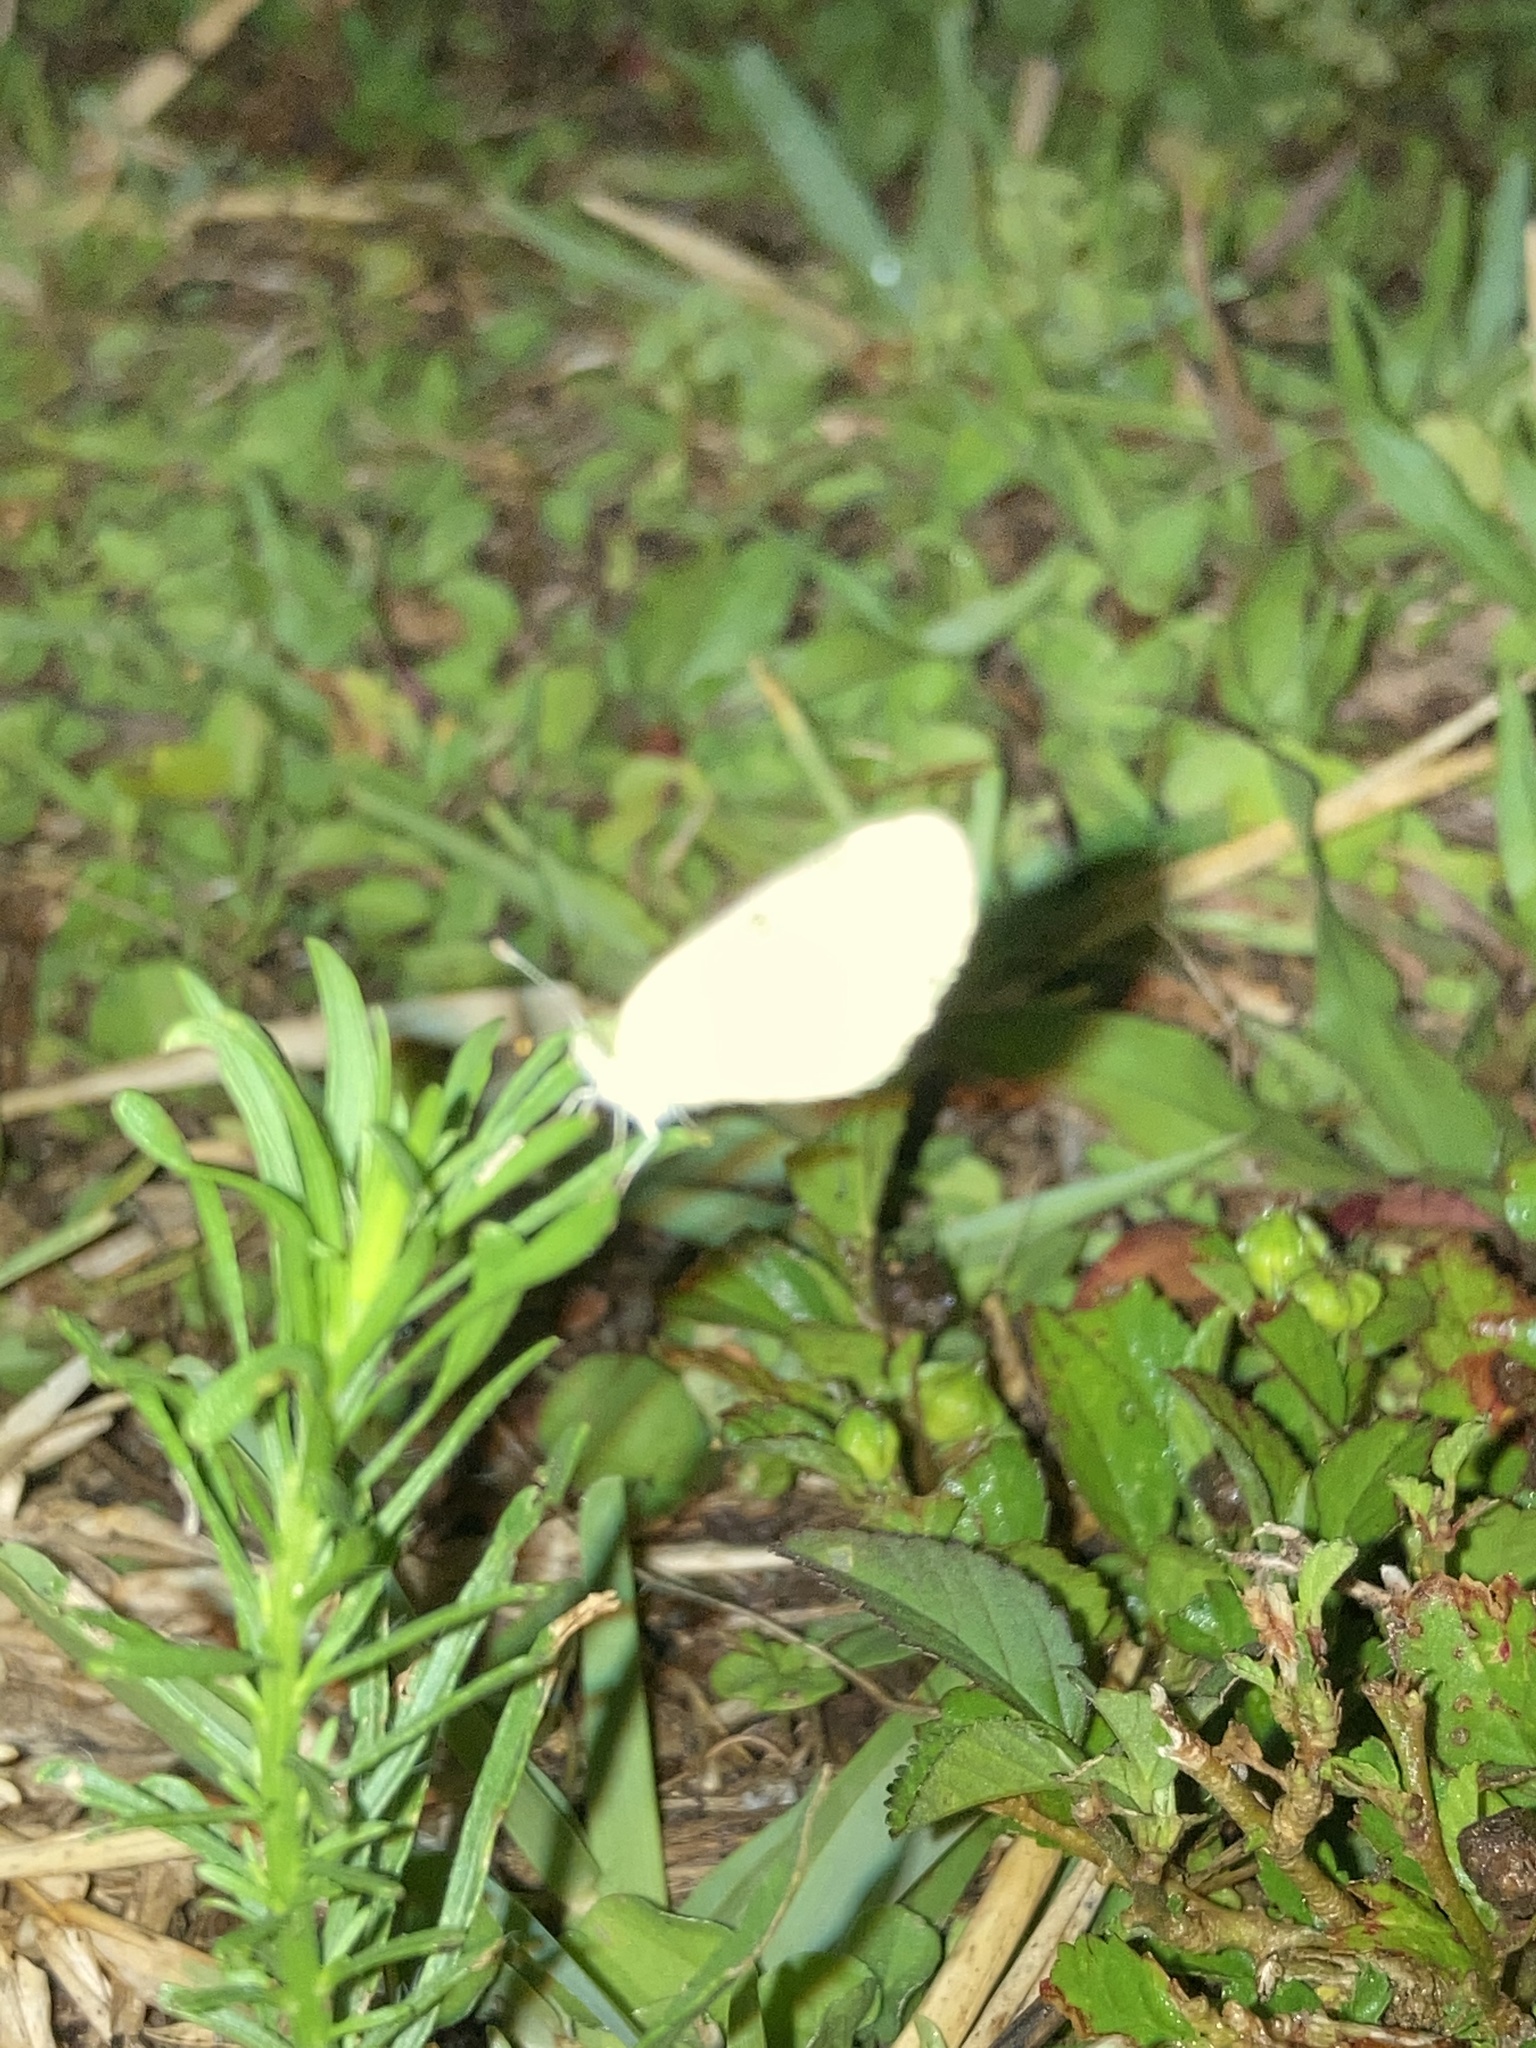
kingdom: Animalia
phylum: Arthropoda
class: Insecta
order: Lepidoptera
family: Pieridae
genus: Nathalis
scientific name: Nathalis iole
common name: Dainty sulphur
